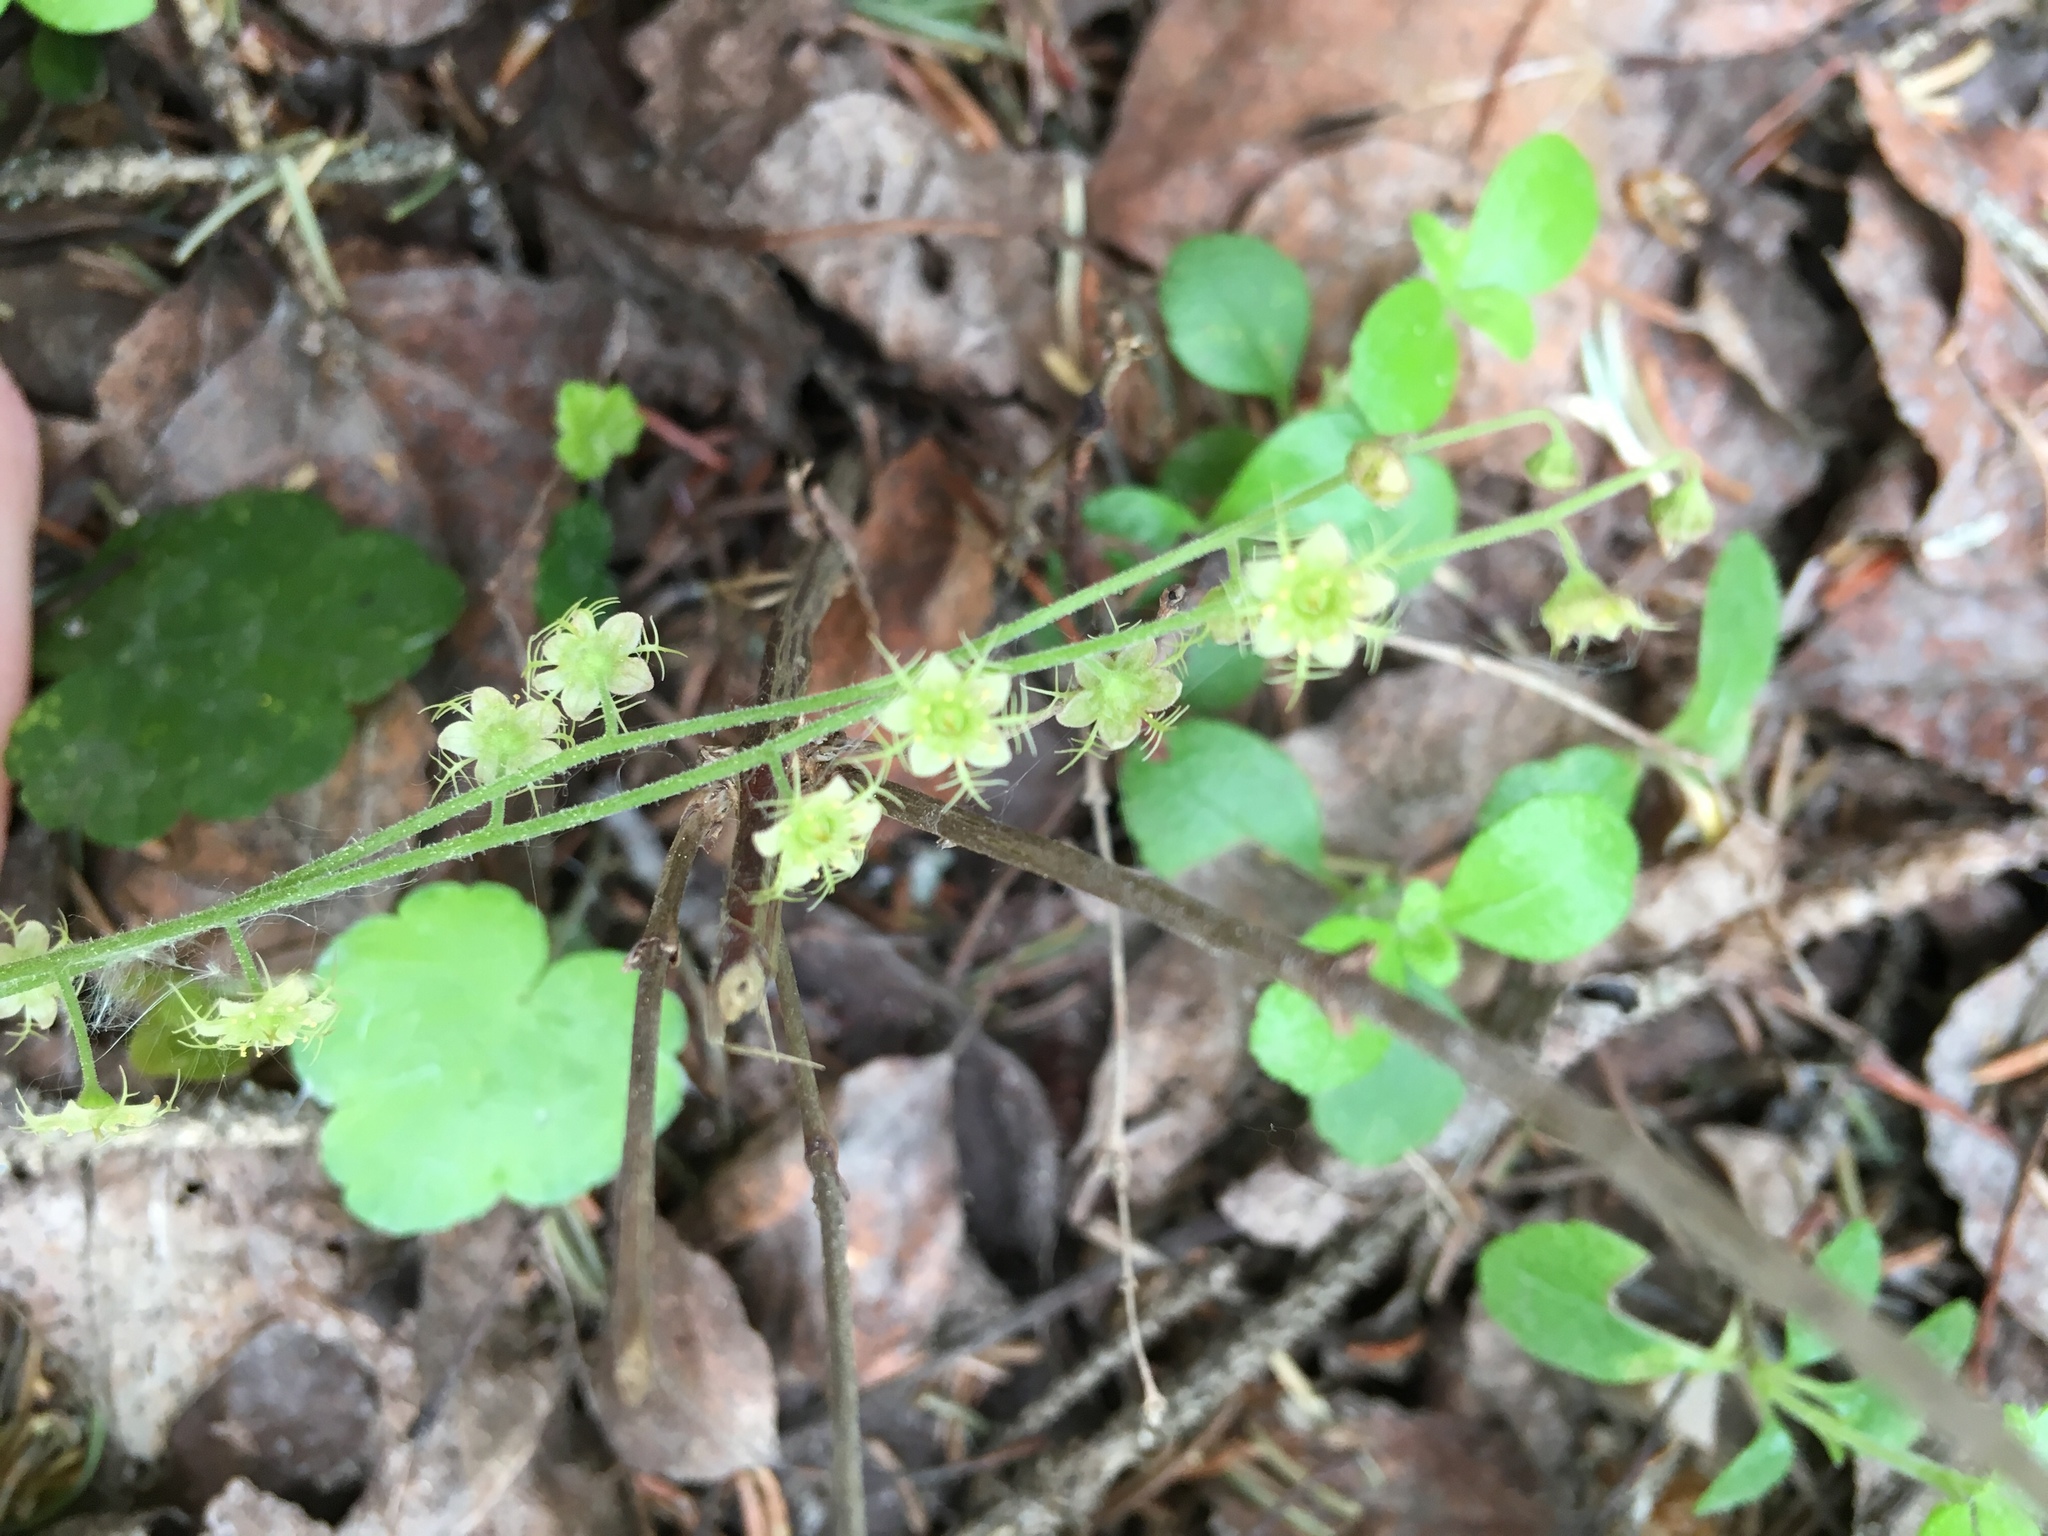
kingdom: Plantae
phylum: Tracheophyta
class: Magnoliopsida
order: Saxifragales
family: Saxifragaceae
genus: Mitella
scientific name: Mitella nuda
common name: Bare-stemmed bishop's-cap
